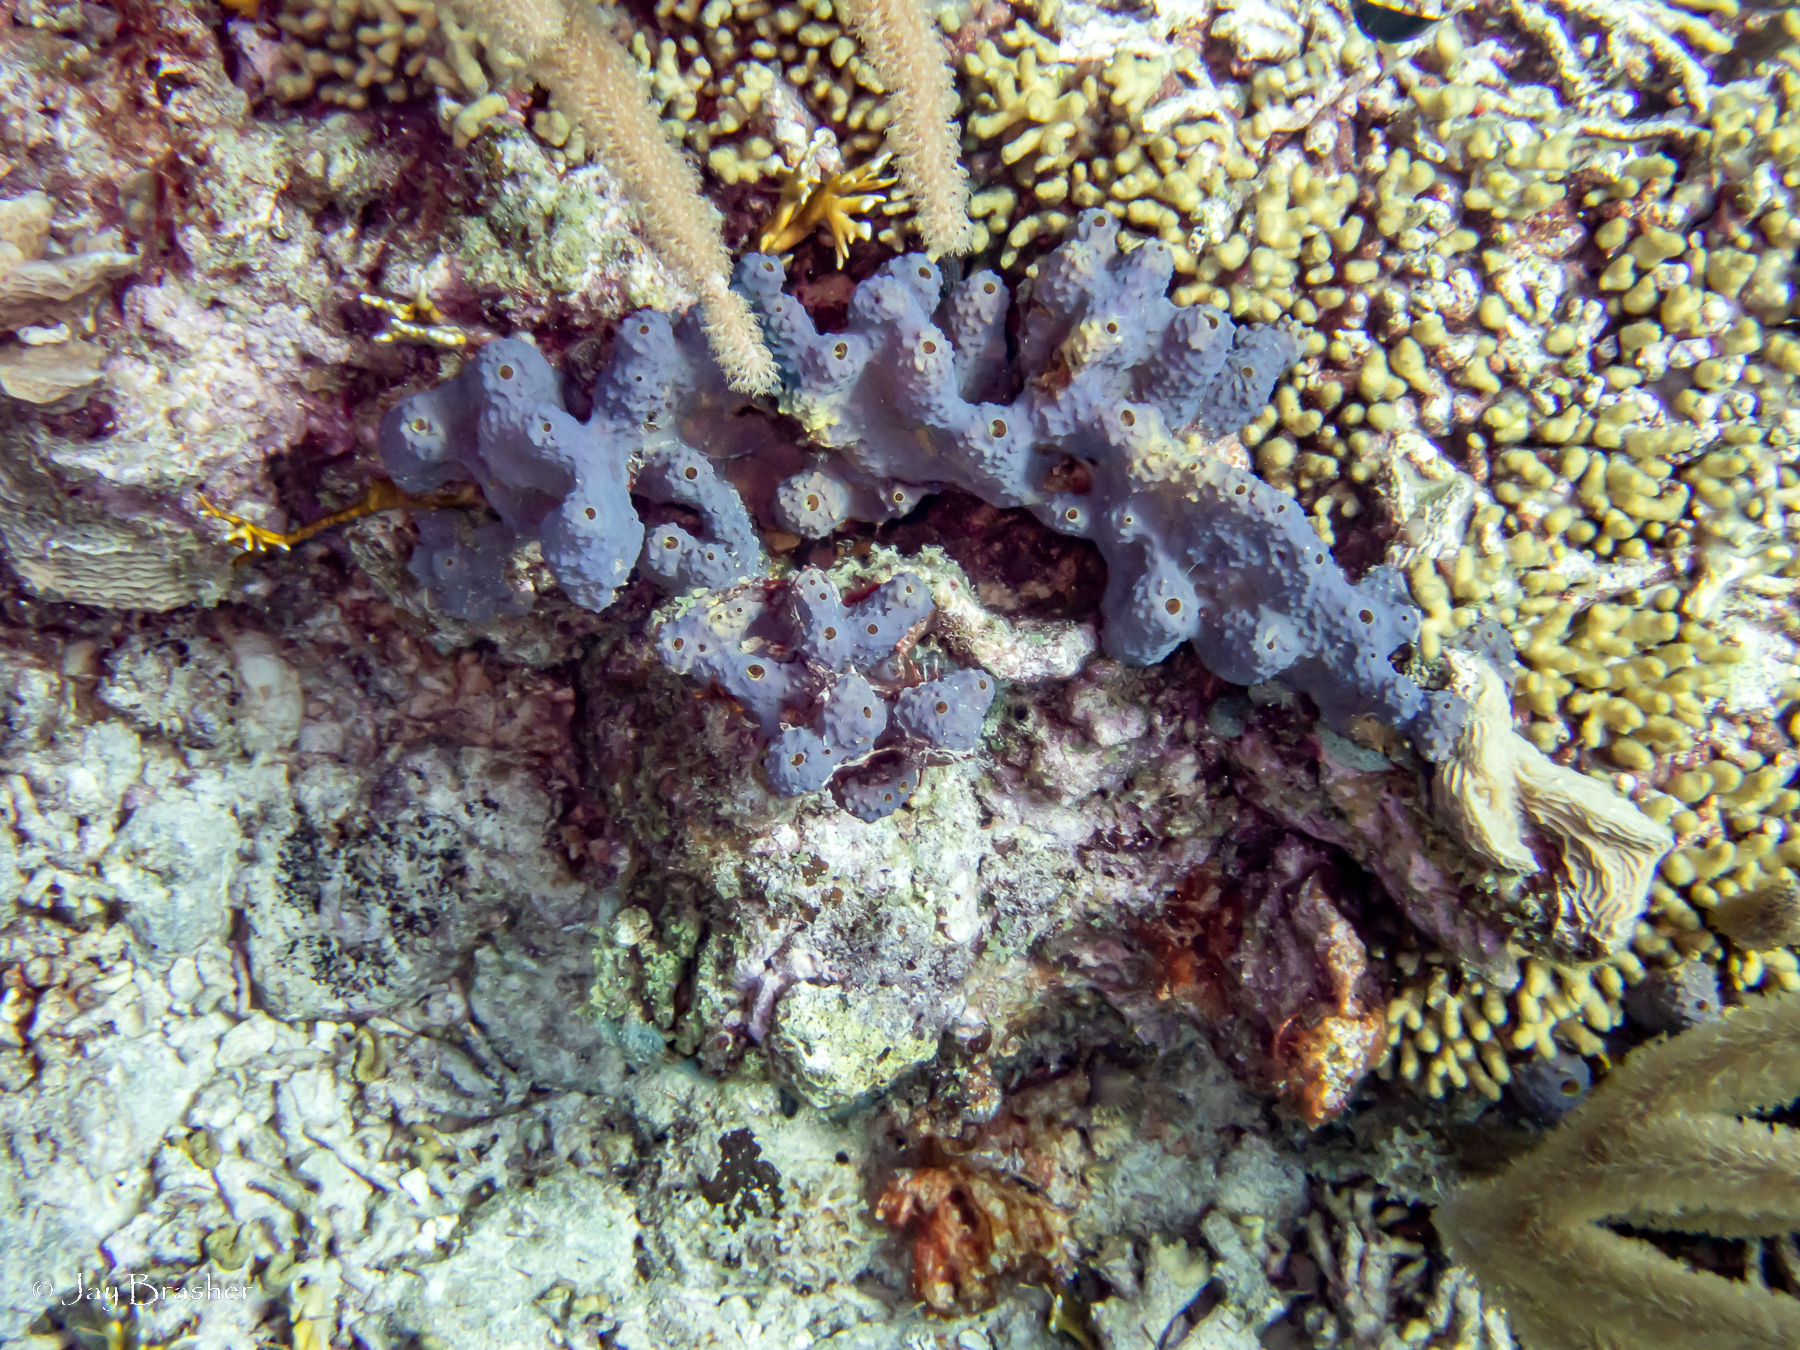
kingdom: Animalia
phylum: Porifera
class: Demospongiae
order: Verongiida
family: Aplysinidae
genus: Aiolochroia
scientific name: Aiolochroia crassa
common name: Branching tube sponge
